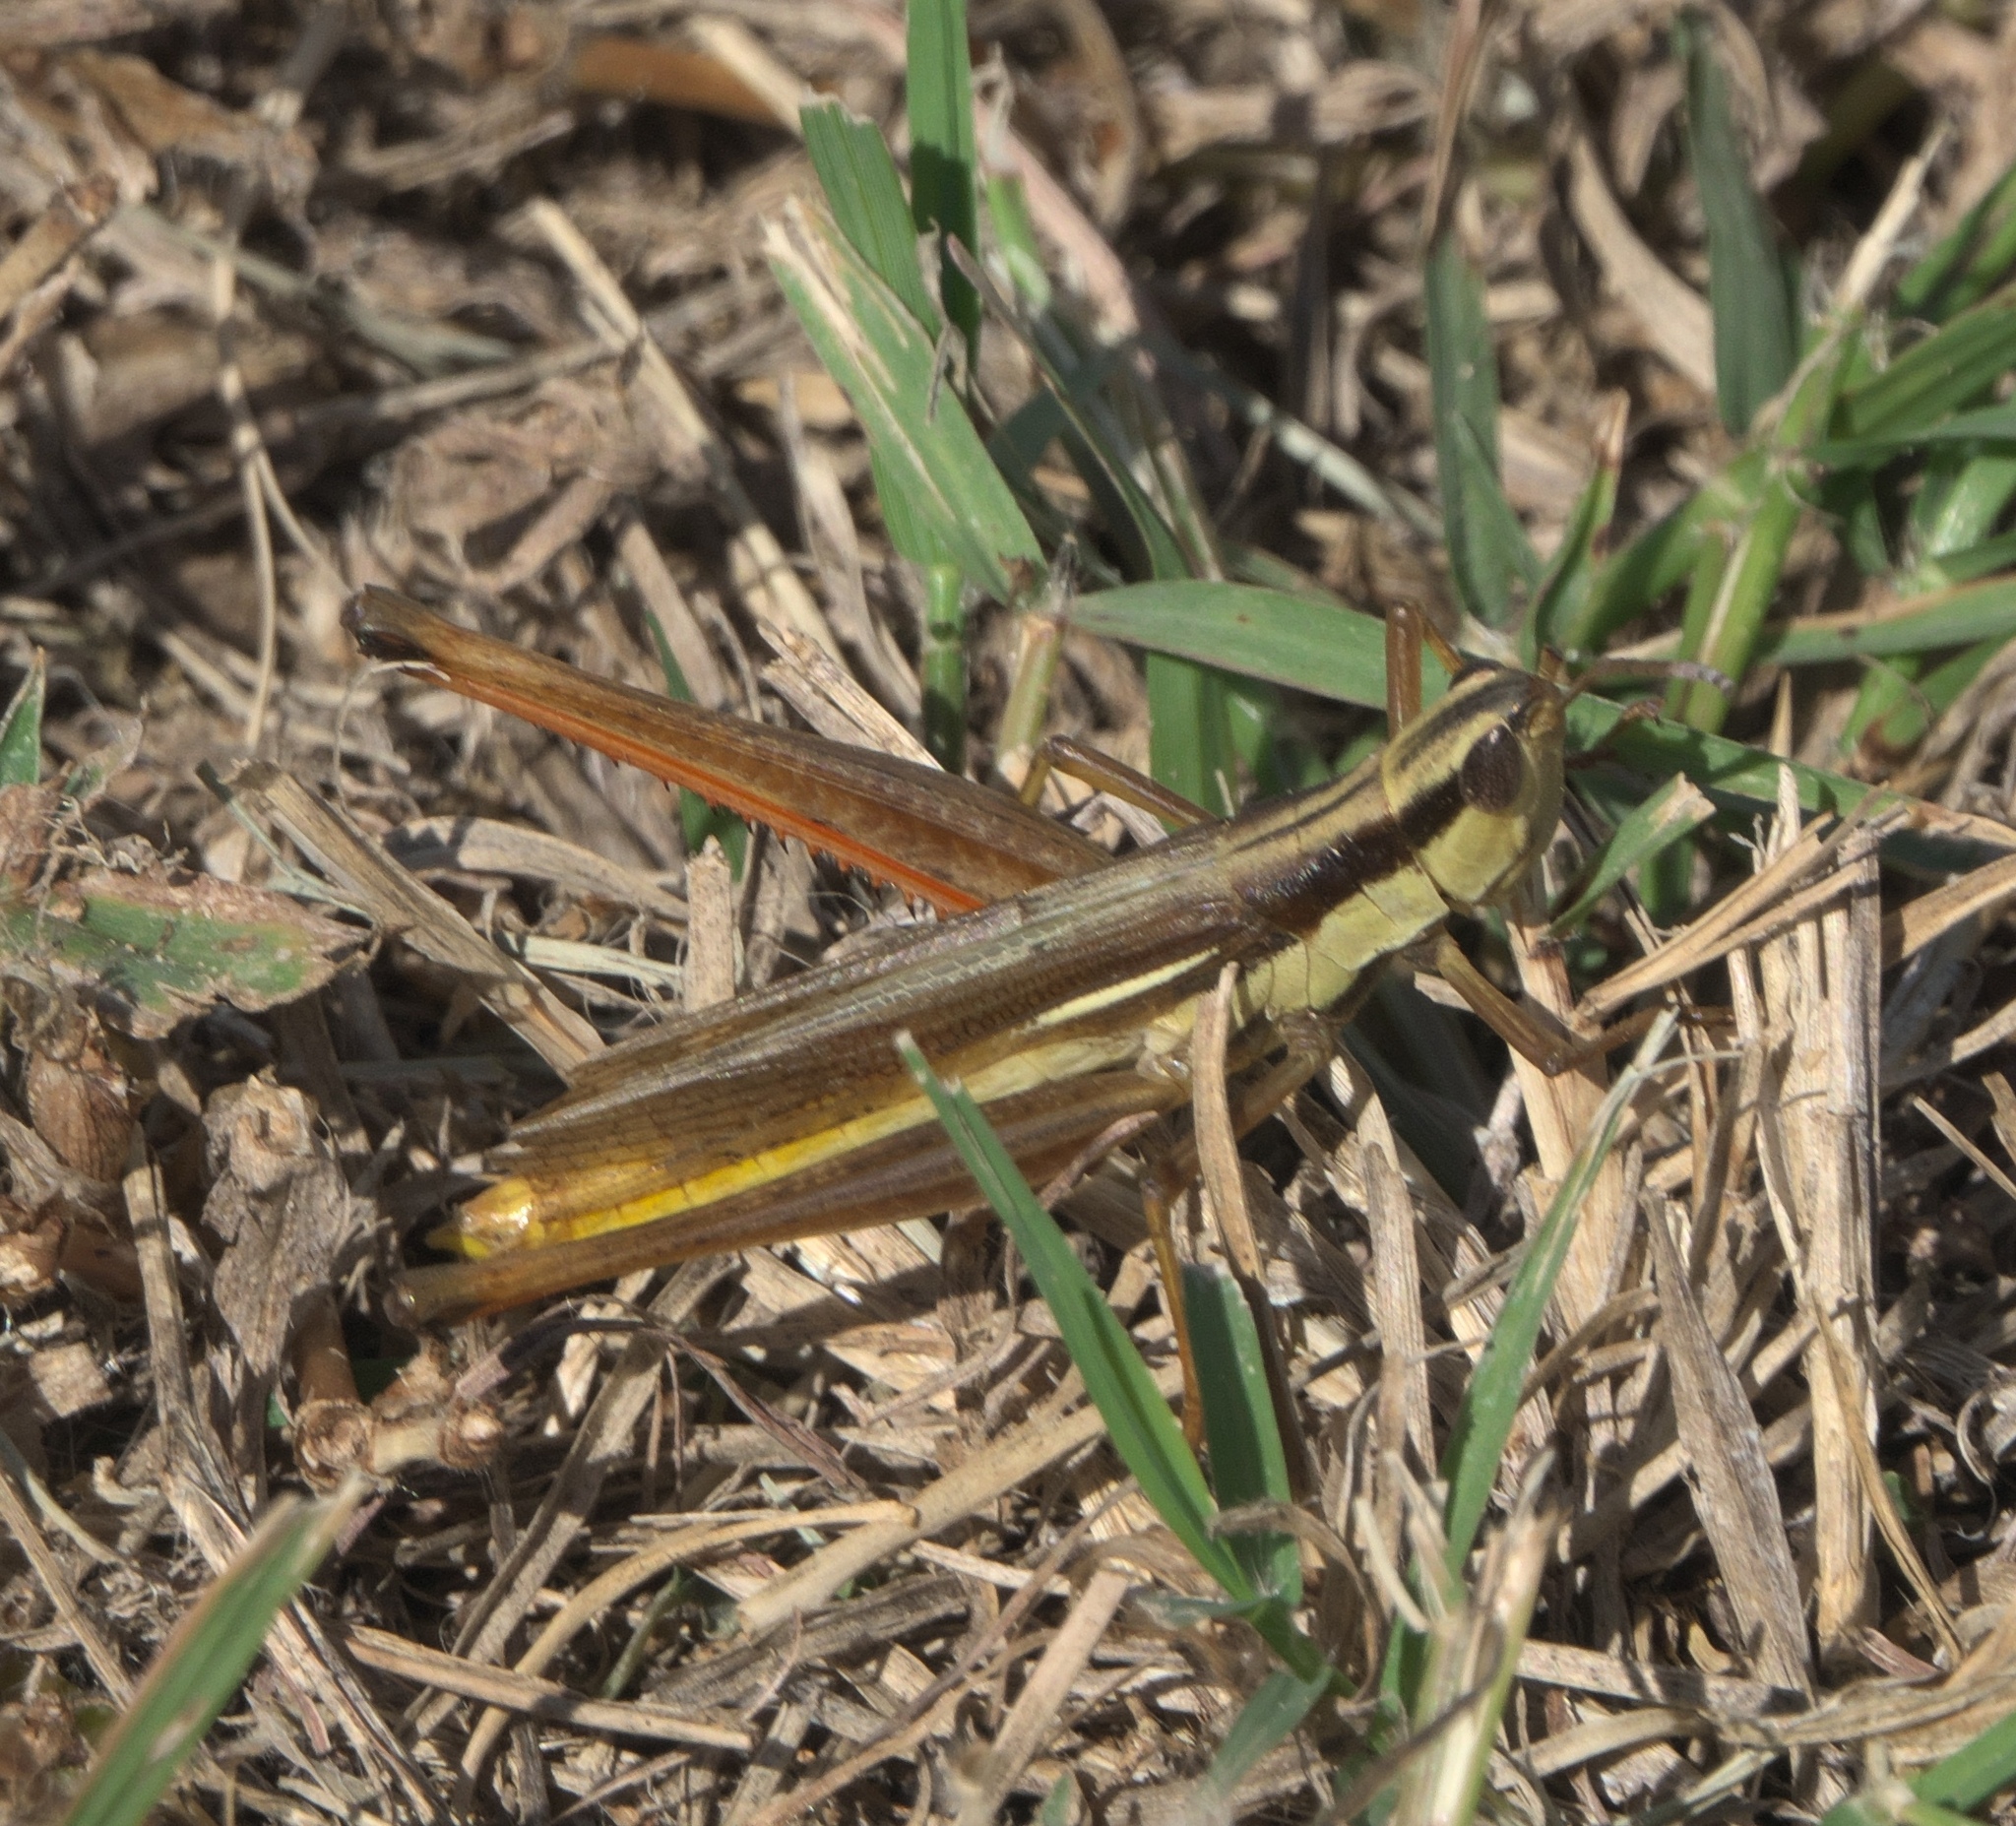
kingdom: Animalia
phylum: Arthropoda
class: Insecta
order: Orthoptera
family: Acrididae
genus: Mermiria
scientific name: Mermiria bivittata
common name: Two-striped mermiria grasshopper
